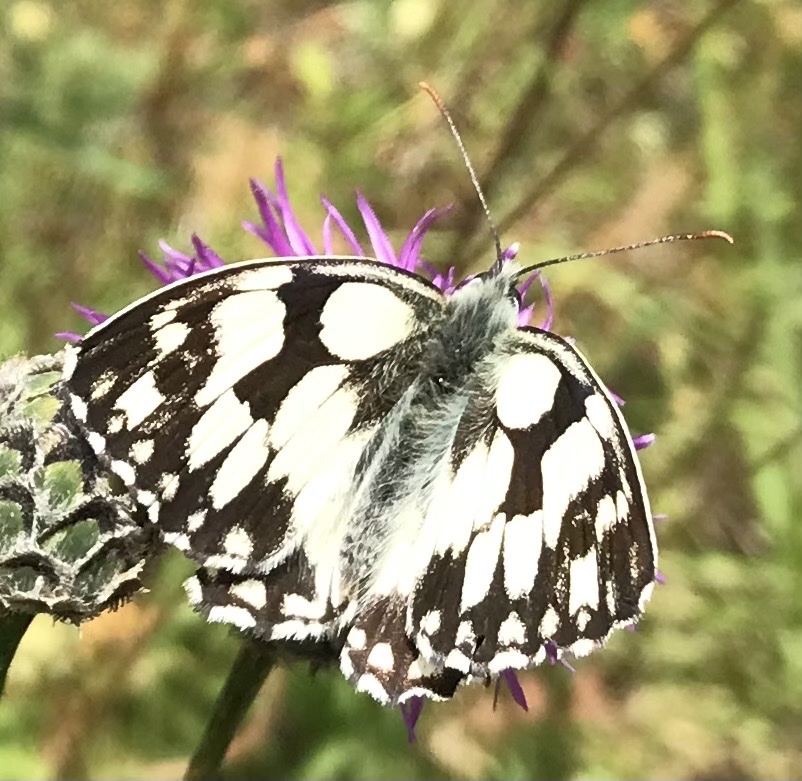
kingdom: Animalia
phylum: Arthropoda
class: Insecta
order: Lepidoptera
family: Nymphalidae
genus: Melanargia
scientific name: Melanargia galathea
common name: Marbled white
